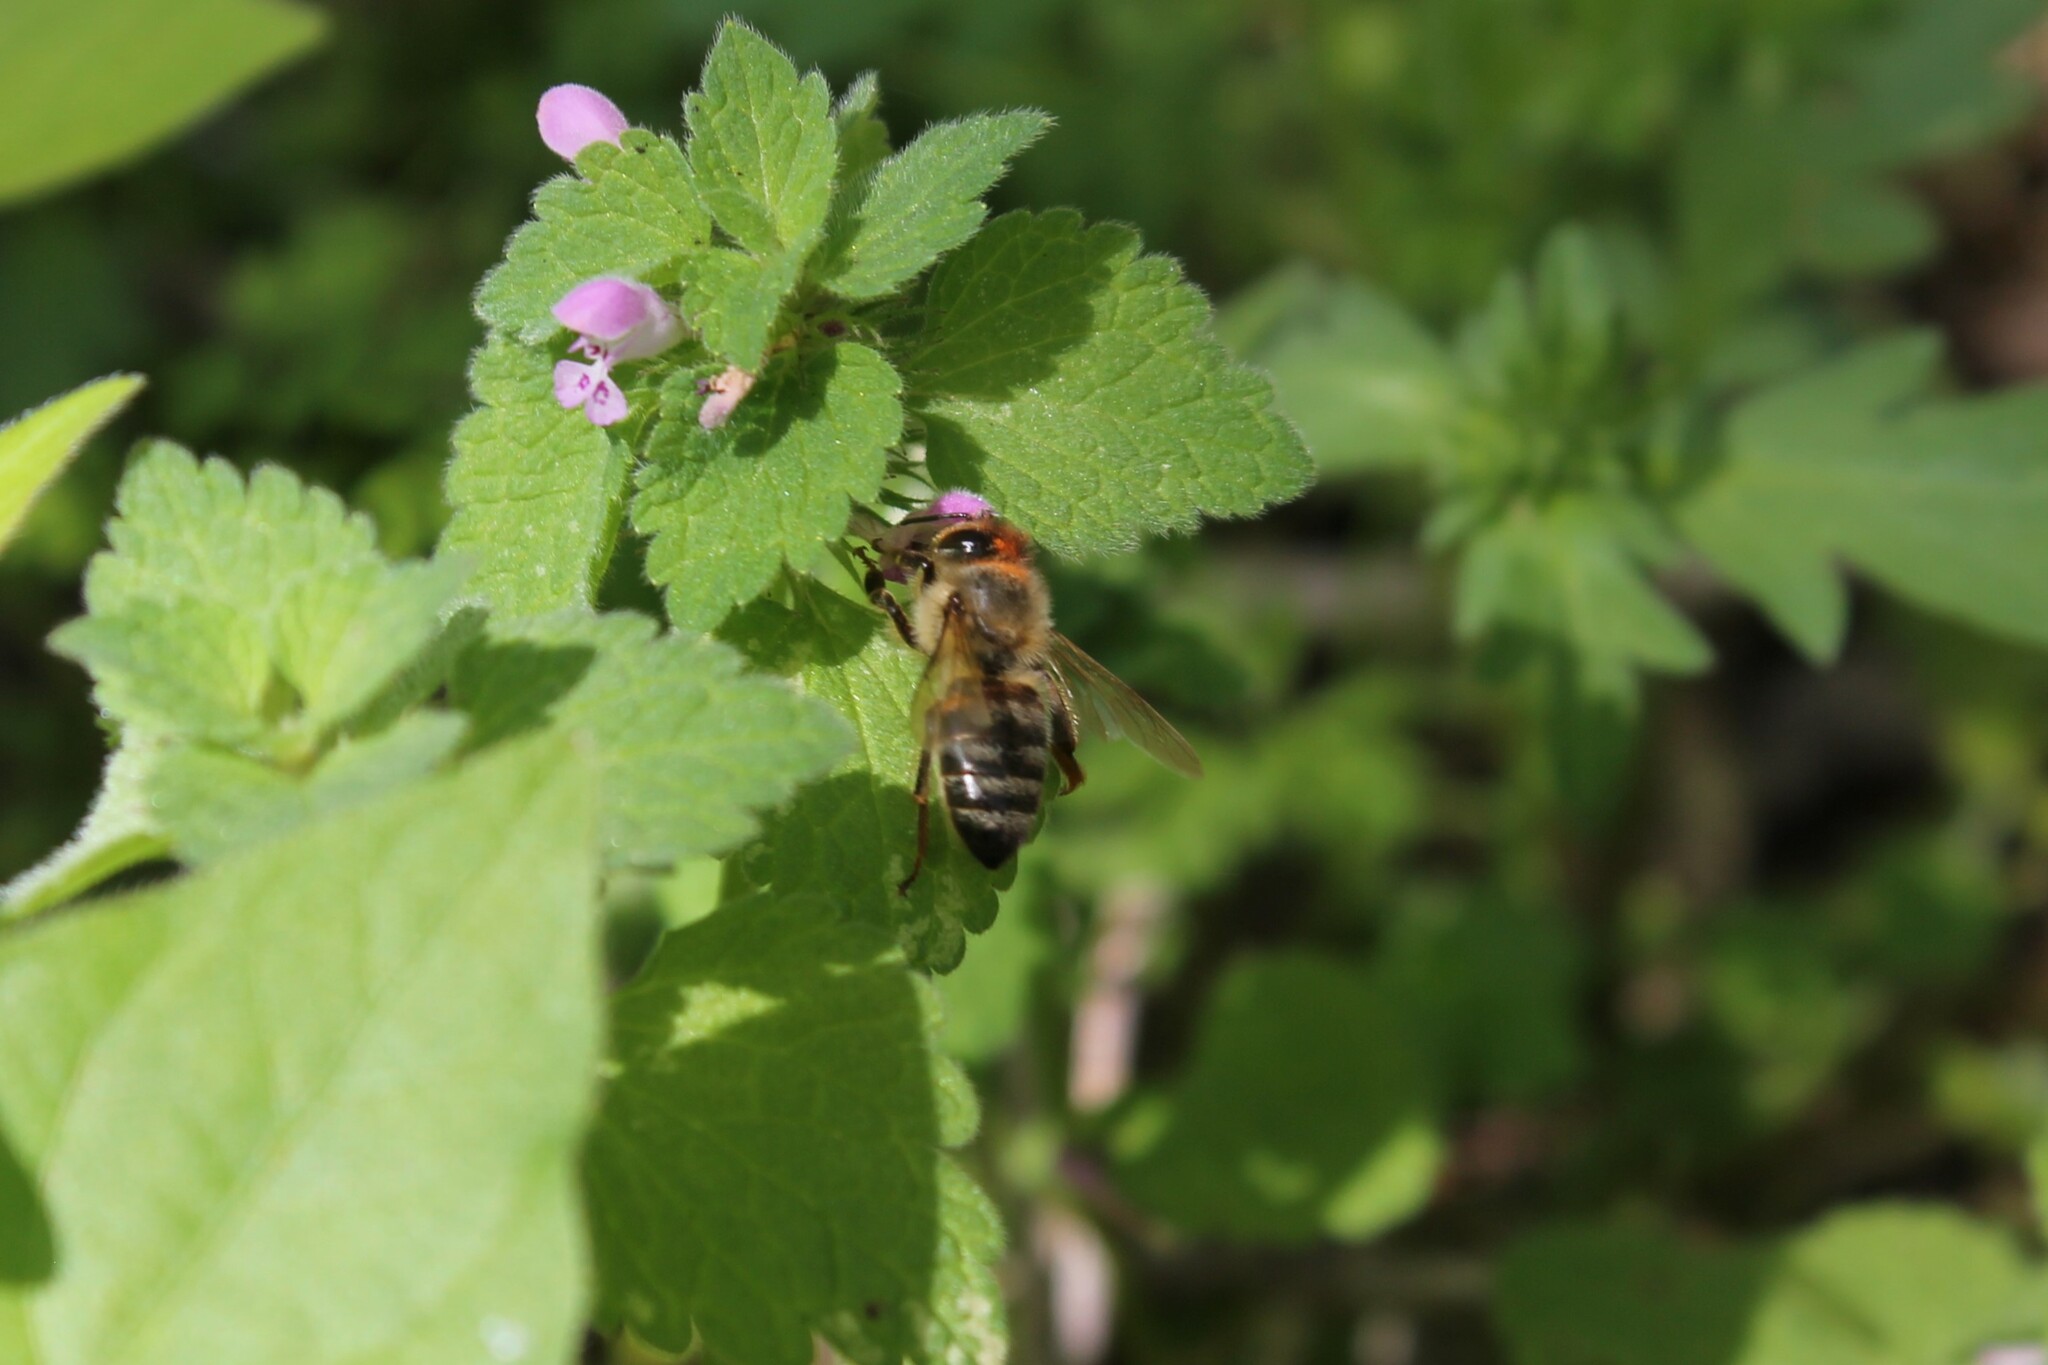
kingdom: Animalia
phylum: Arthropoda
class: Insecta
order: Hymenoptera
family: Apidae
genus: Apis
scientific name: Apis mellifera
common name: Honey bee
